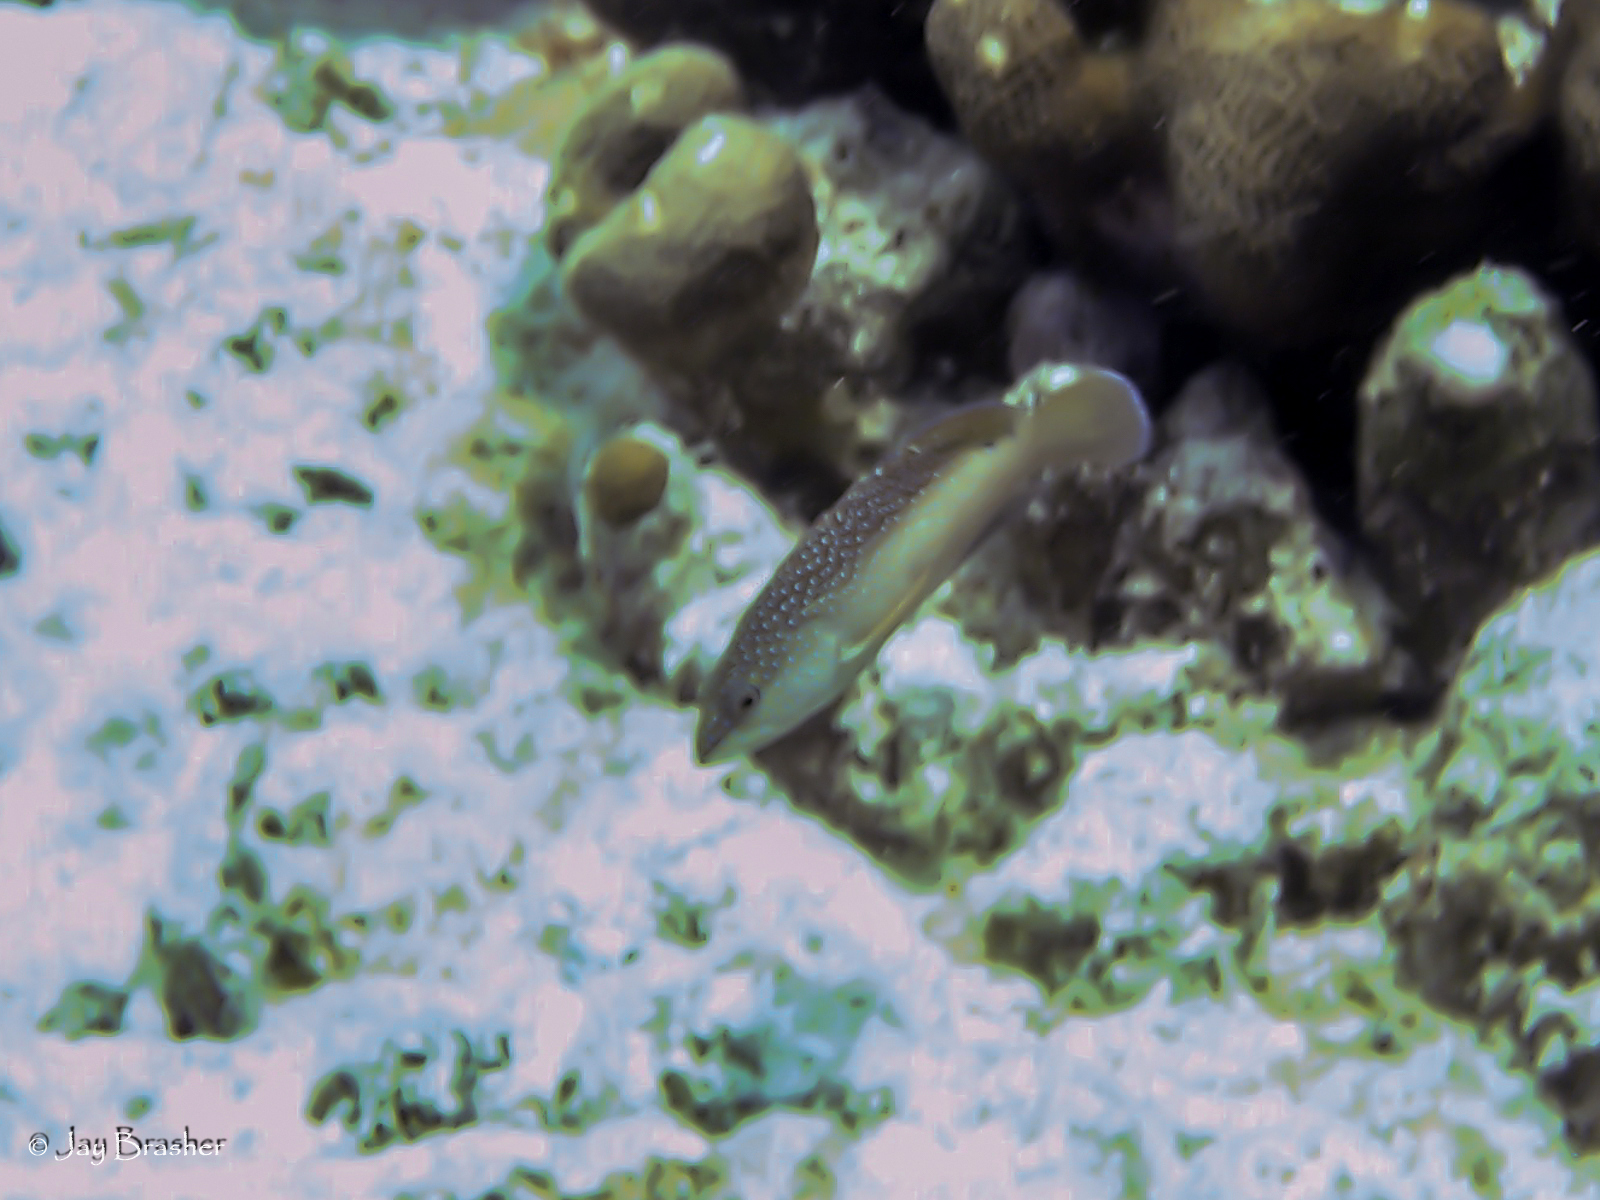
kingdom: Animalia
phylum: Chordata
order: Perciformes
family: Serranidae
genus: Cephalopholis
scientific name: Cephalopholis fulva
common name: Butterfish
